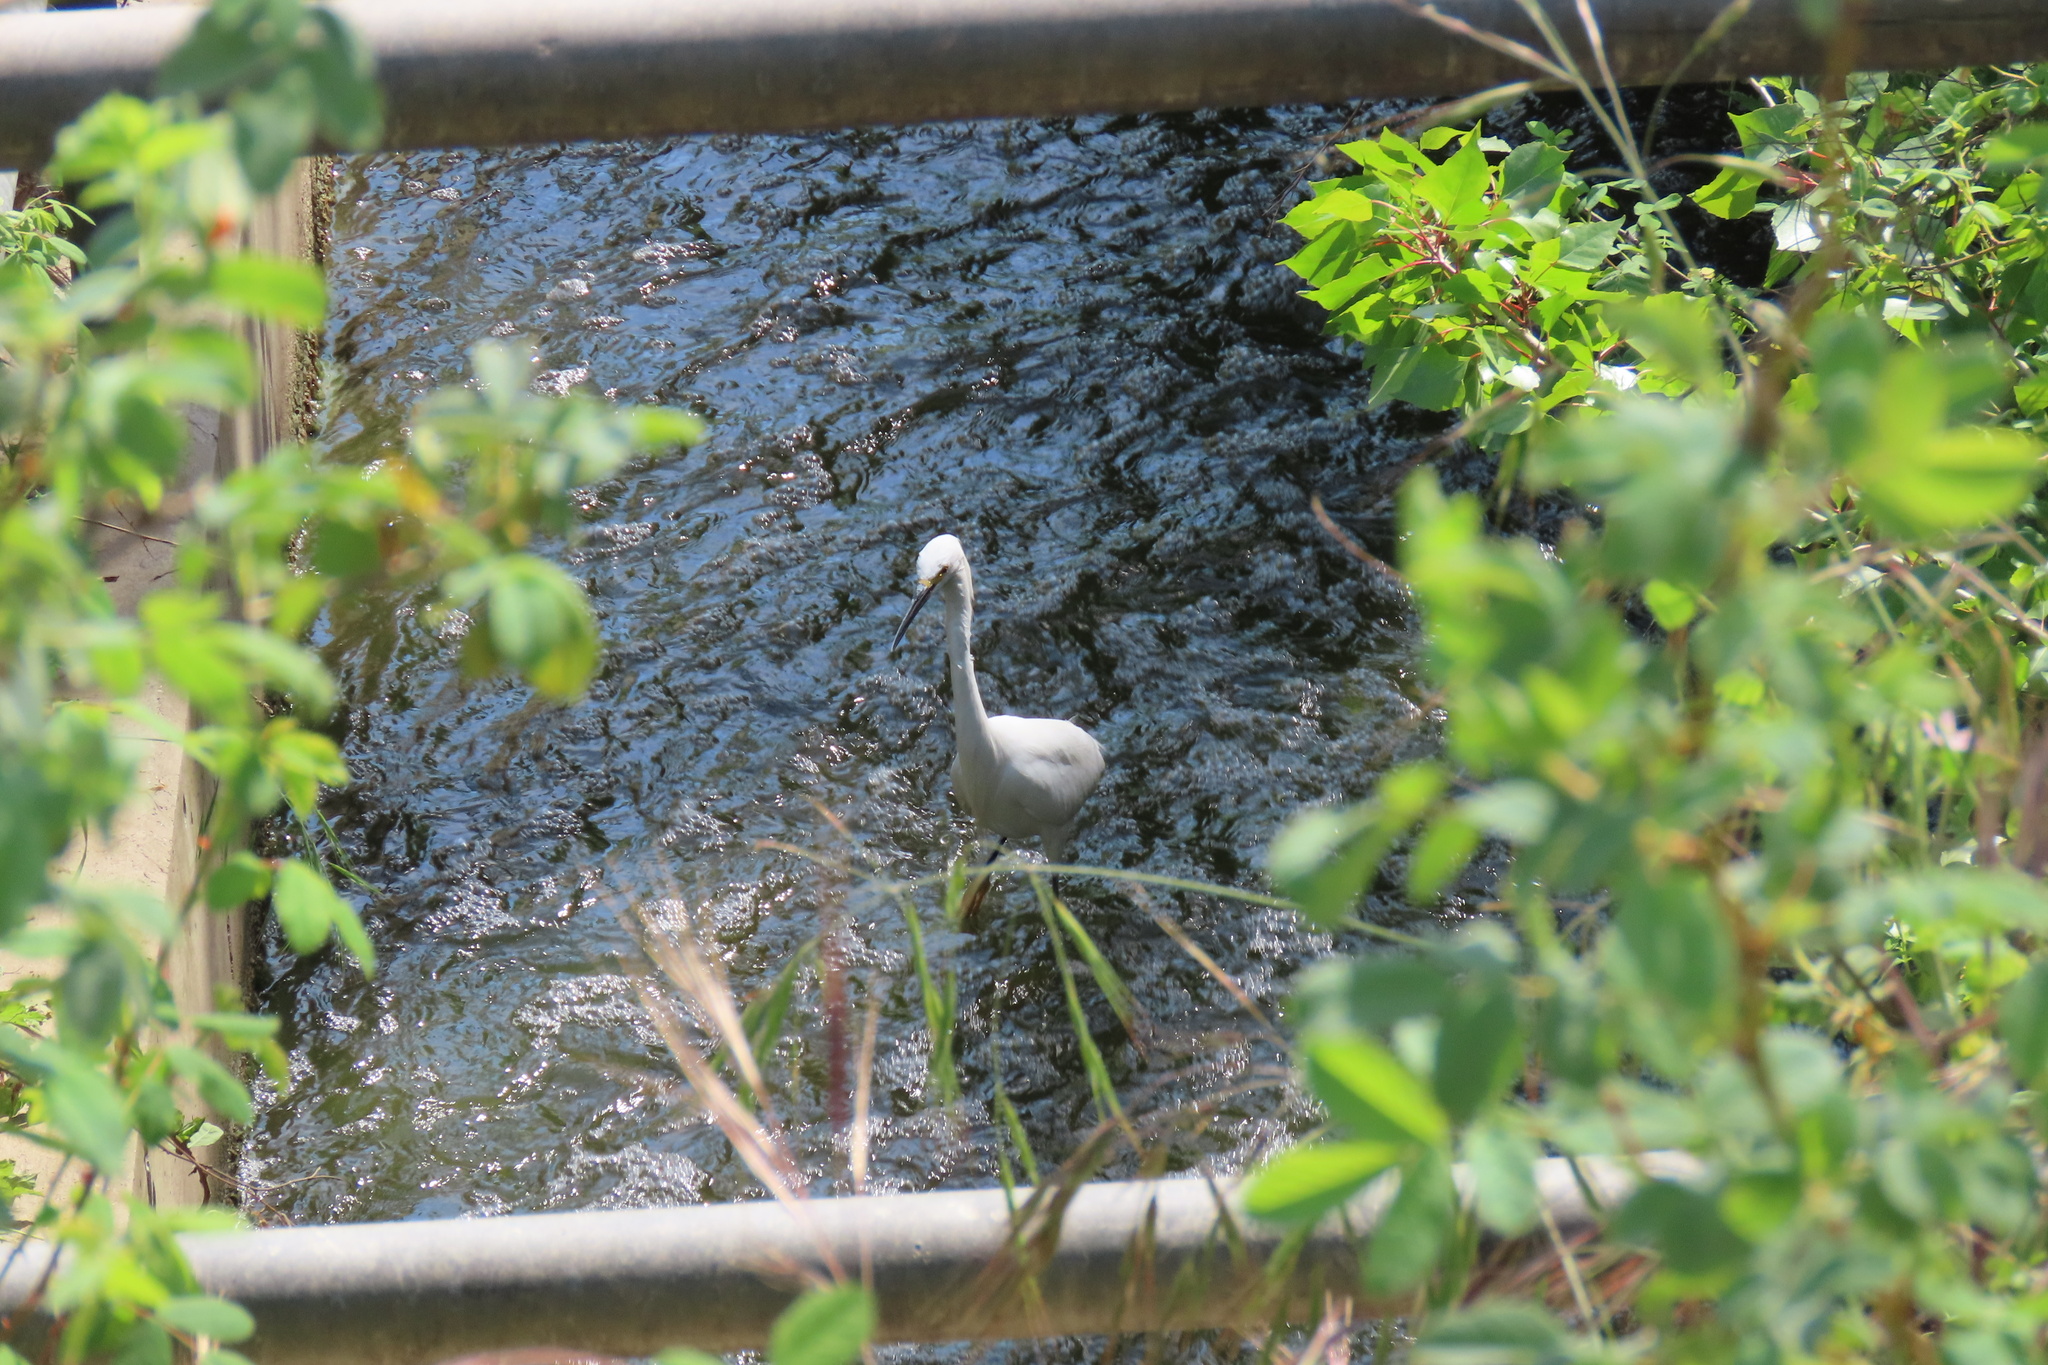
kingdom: Animalia
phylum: Chordata
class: Aves
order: Pelecaniformes
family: Ardeidae
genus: Egretta
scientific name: Egretta thula
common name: Snowy egret
